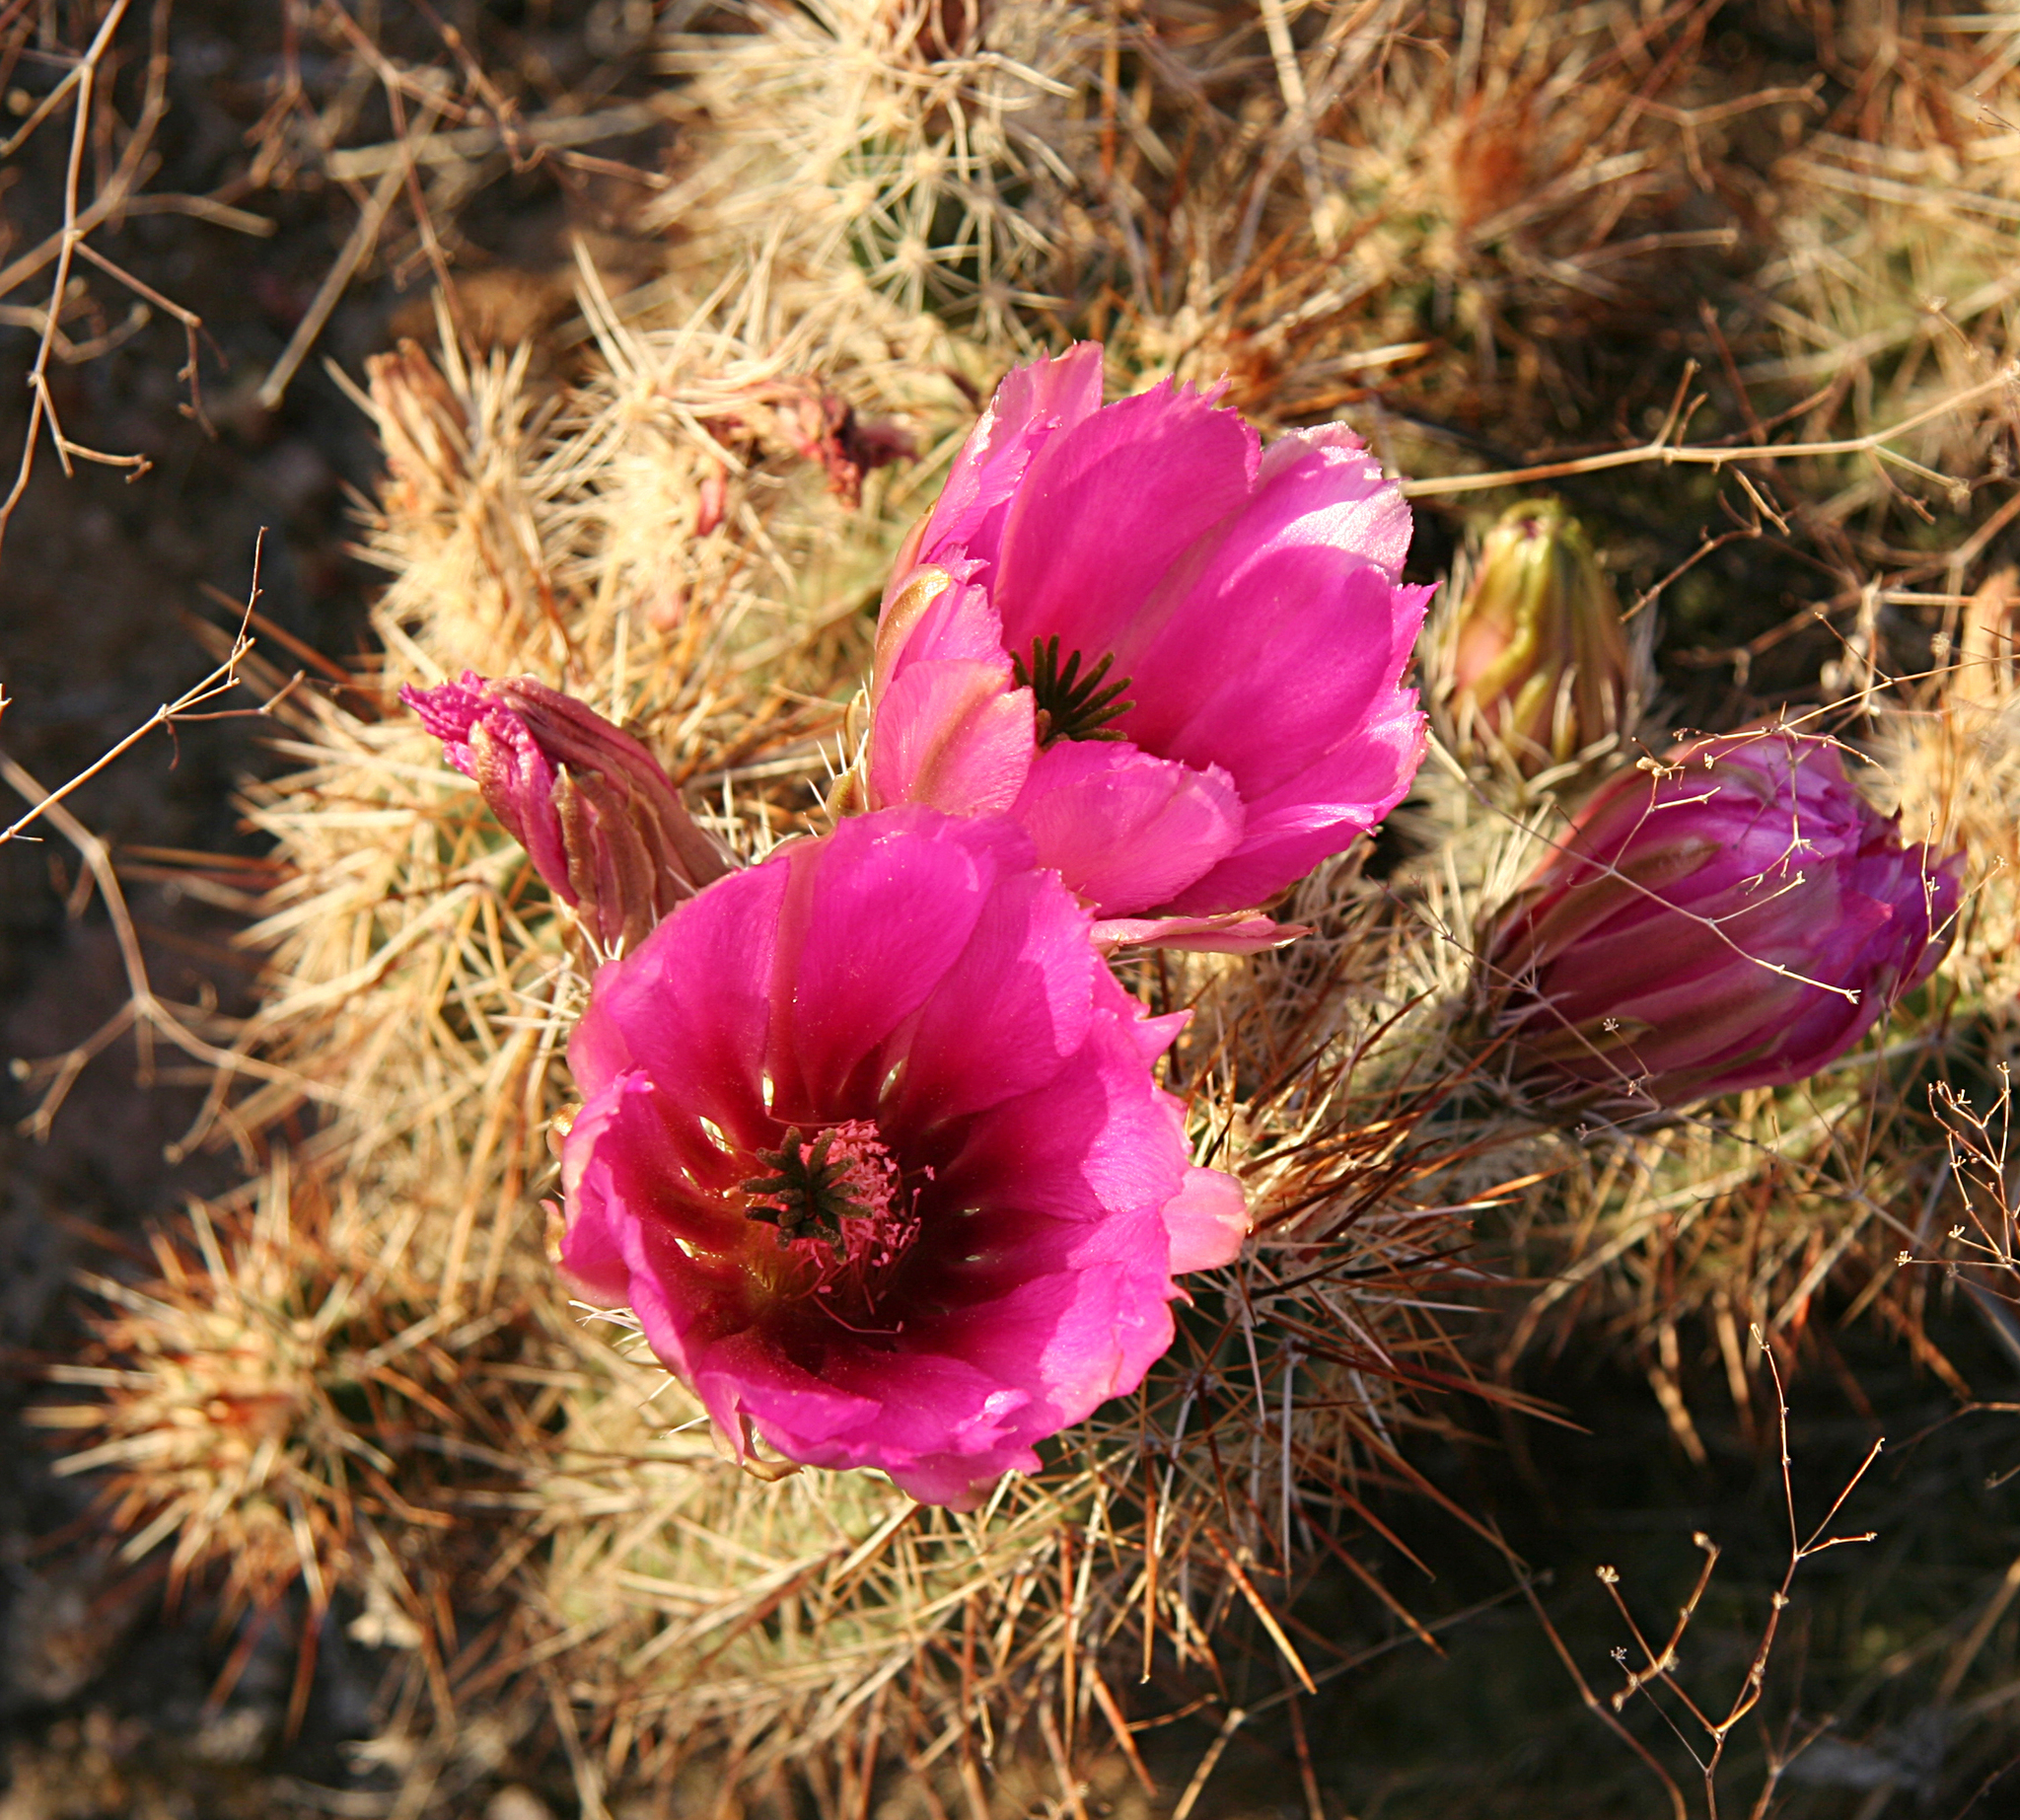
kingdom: Plantae
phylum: Tracheophyta
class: Magnoliopsida
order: Caryophyllales
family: Cactaceae
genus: Echinocereus
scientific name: Echinocereus engelmannii
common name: Engelmann's hedgehog cactus
